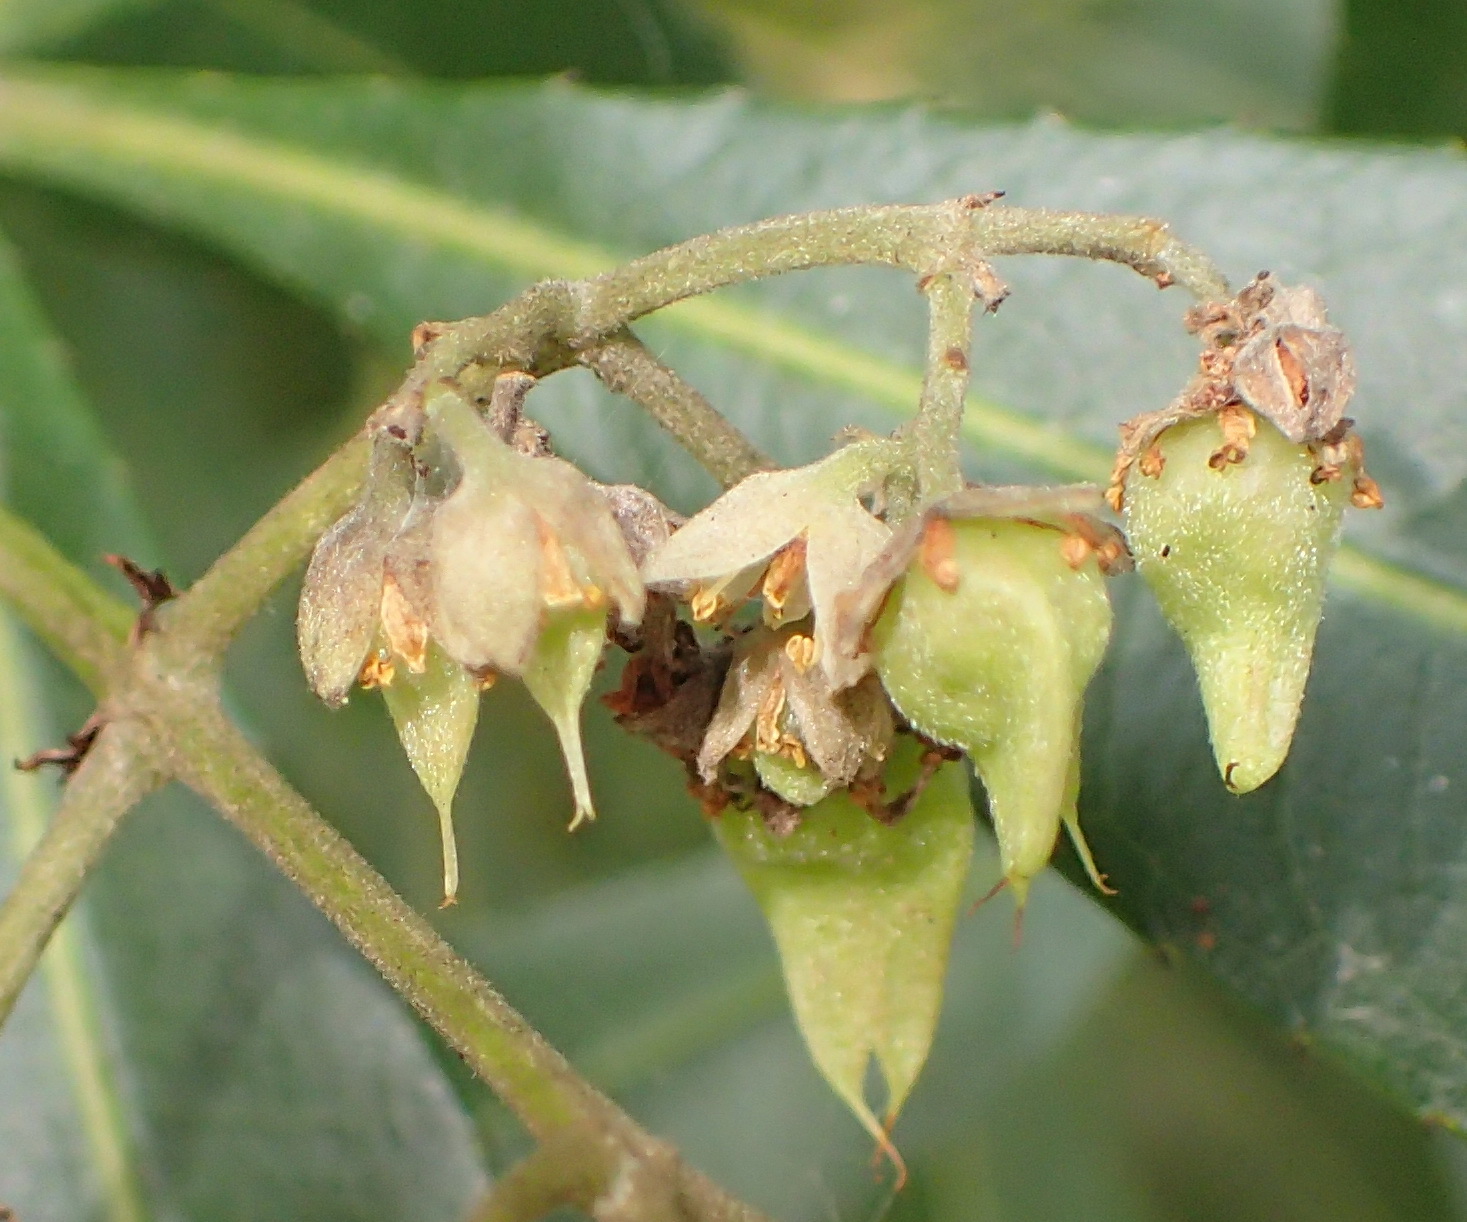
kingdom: Plantae
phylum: Tracheophyta
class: Magnoliopsida
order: Oxalidales
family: Cunoniaceae
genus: Platylophus
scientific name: Platylophus trifoliatus
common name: White alder
